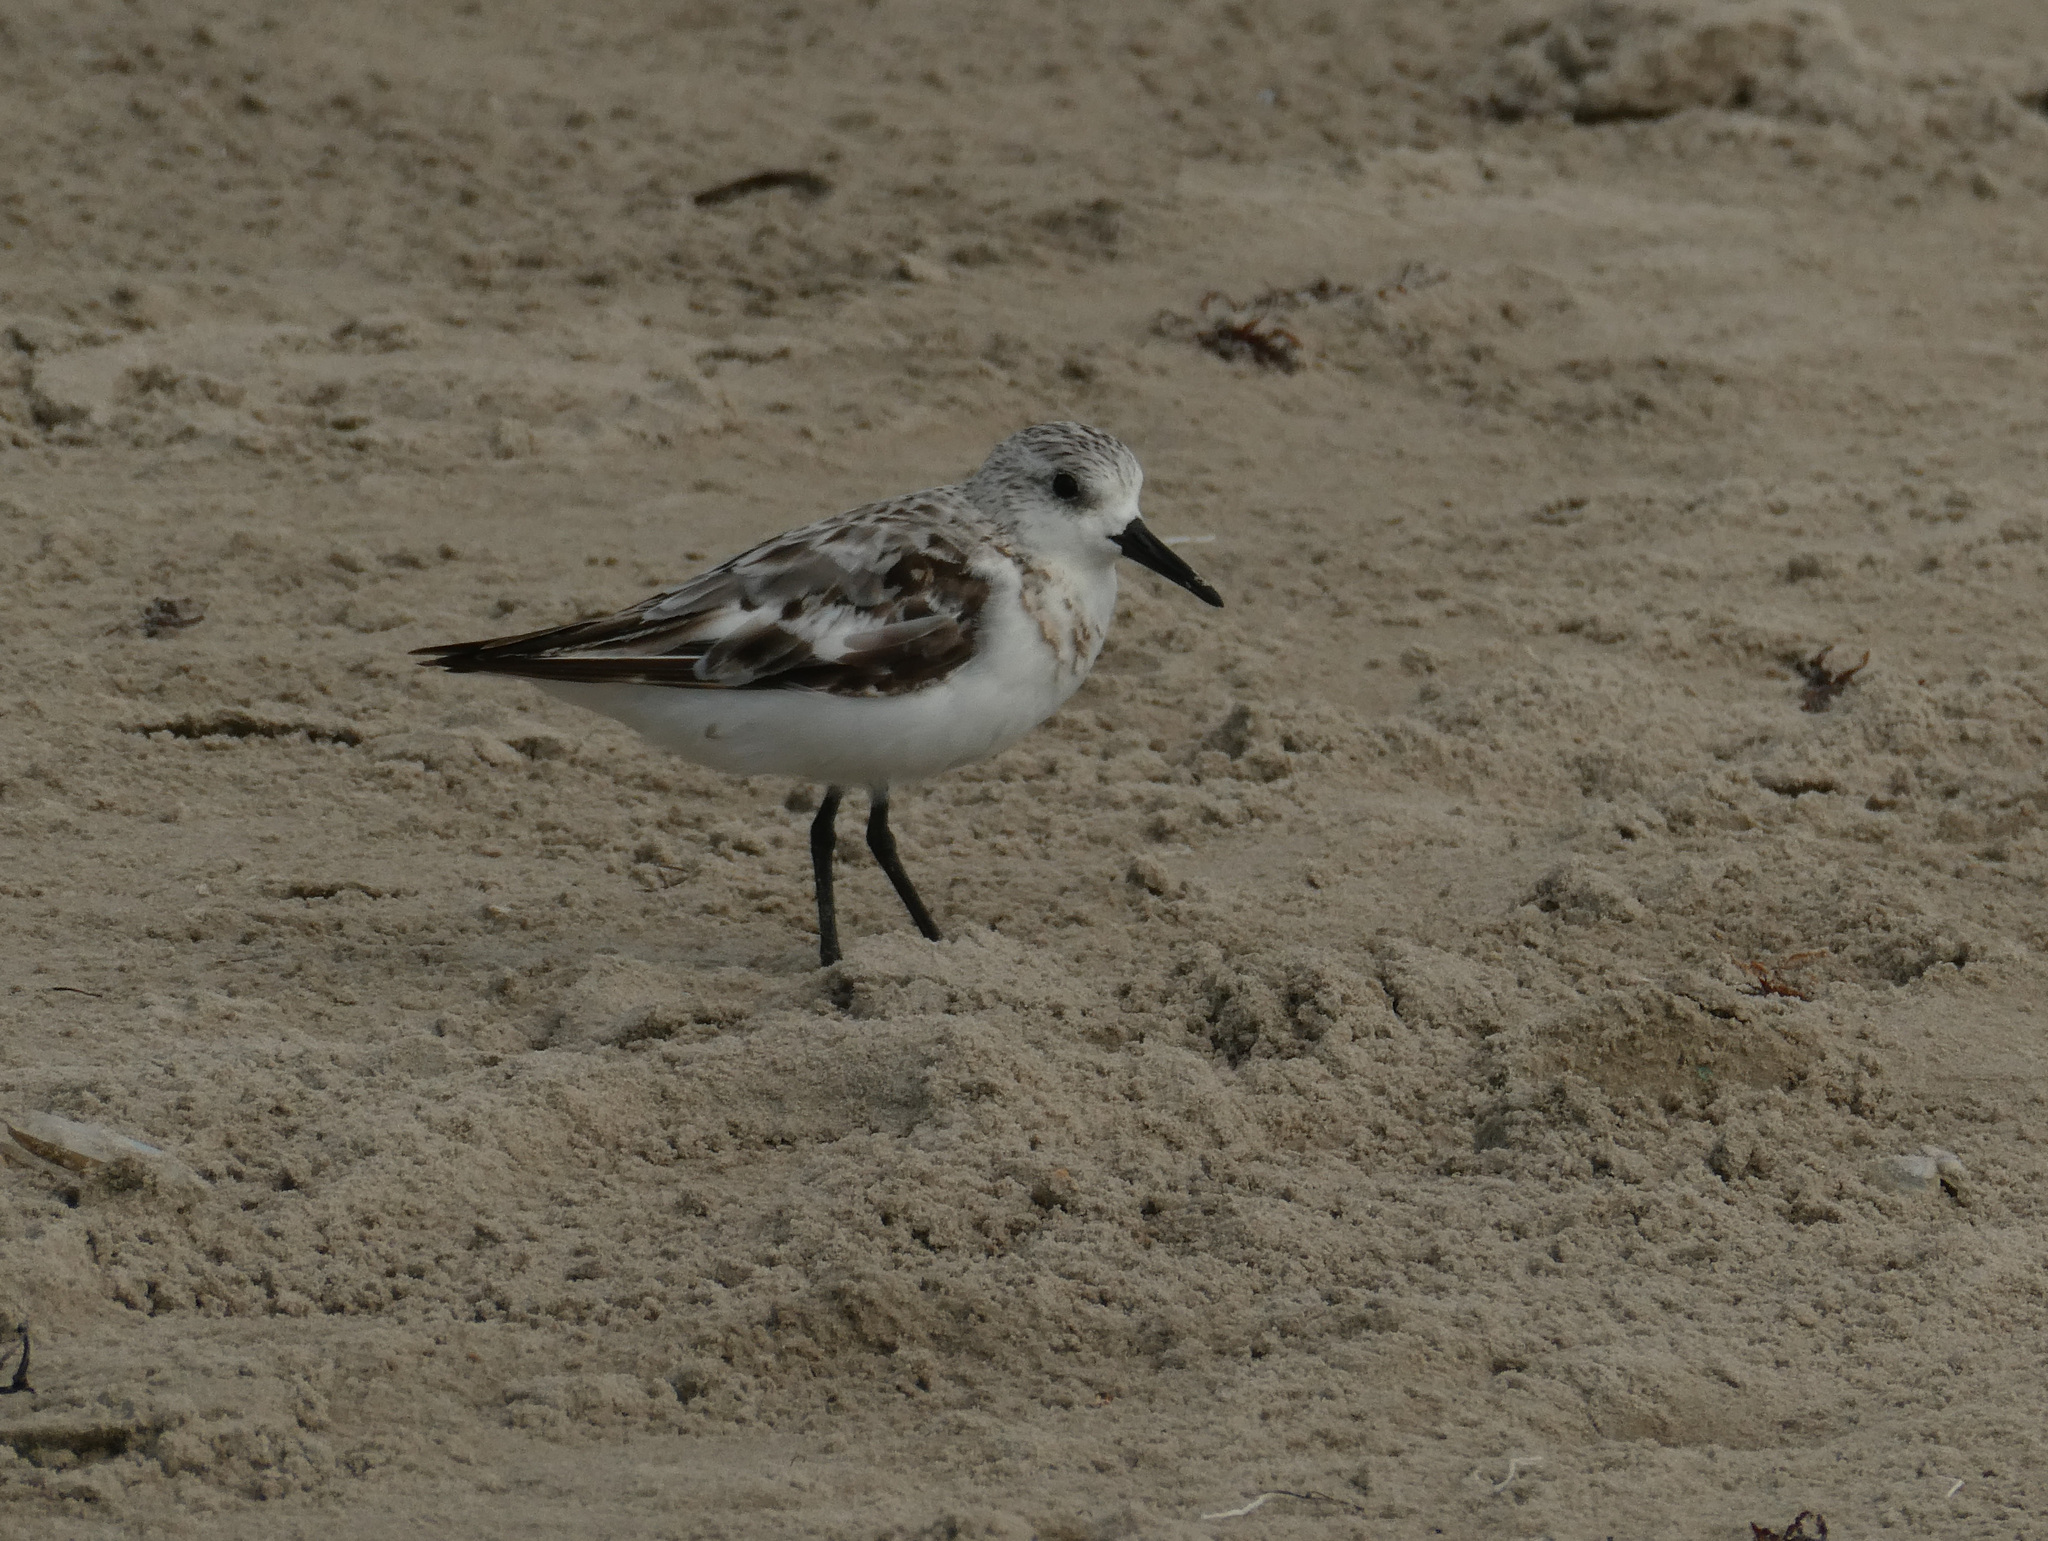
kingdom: Animalia
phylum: Chordata
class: Aves
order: Charadriiformes
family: Scolopacidae
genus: Calidris
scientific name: Calidris alba
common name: Sanderling
